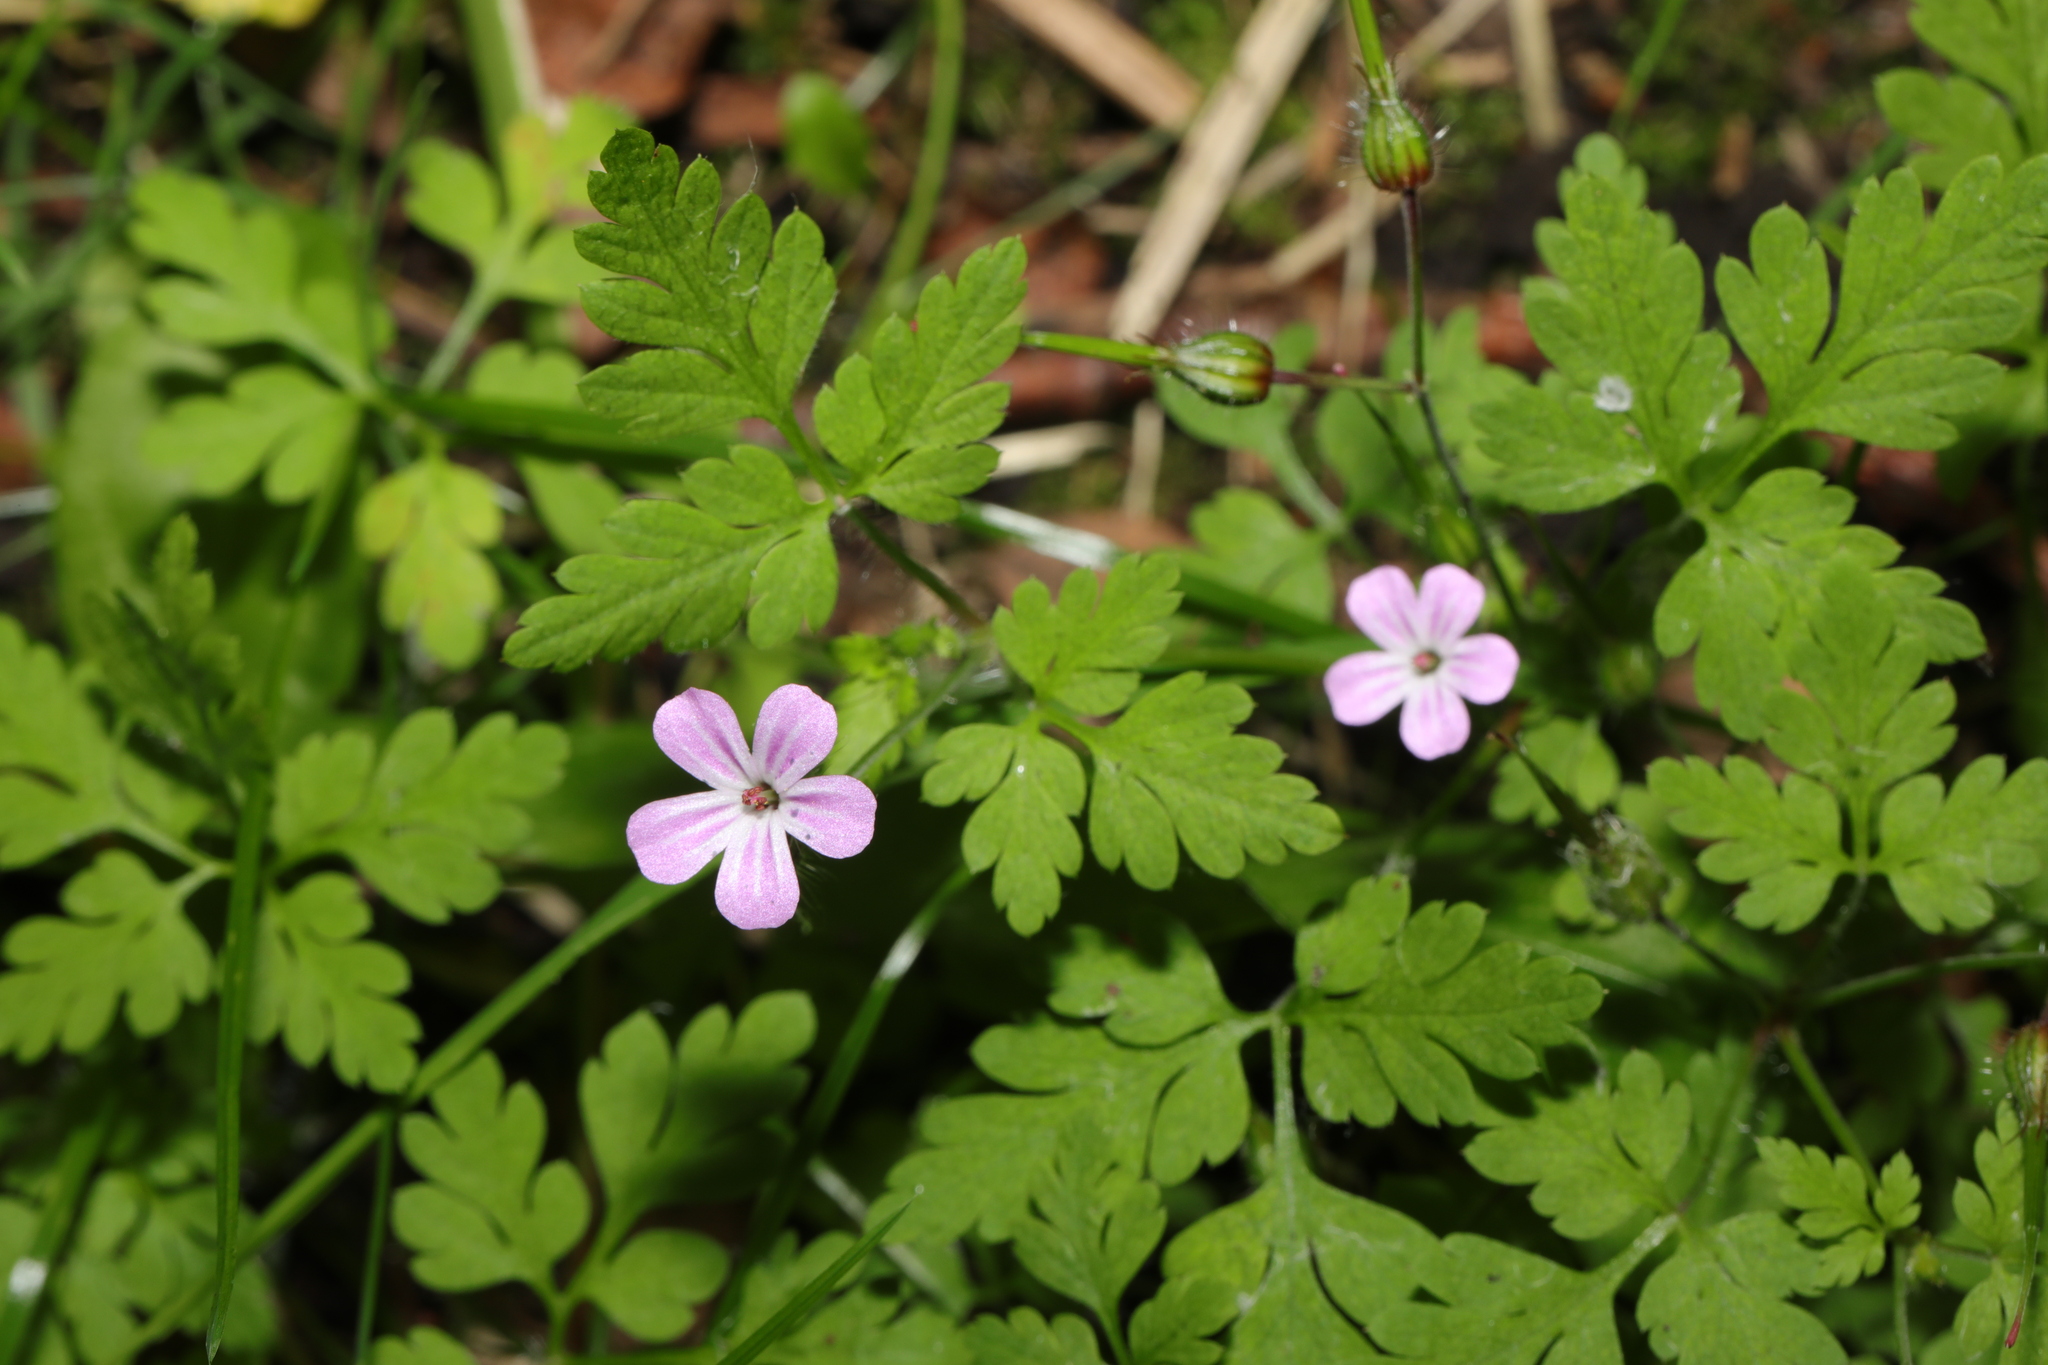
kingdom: Plantae
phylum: Tracheophyta
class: Magnoliopsida
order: Geraniales
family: Geraniaceae
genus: Geranium
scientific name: Geranium robertianum
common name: Herb-robert
